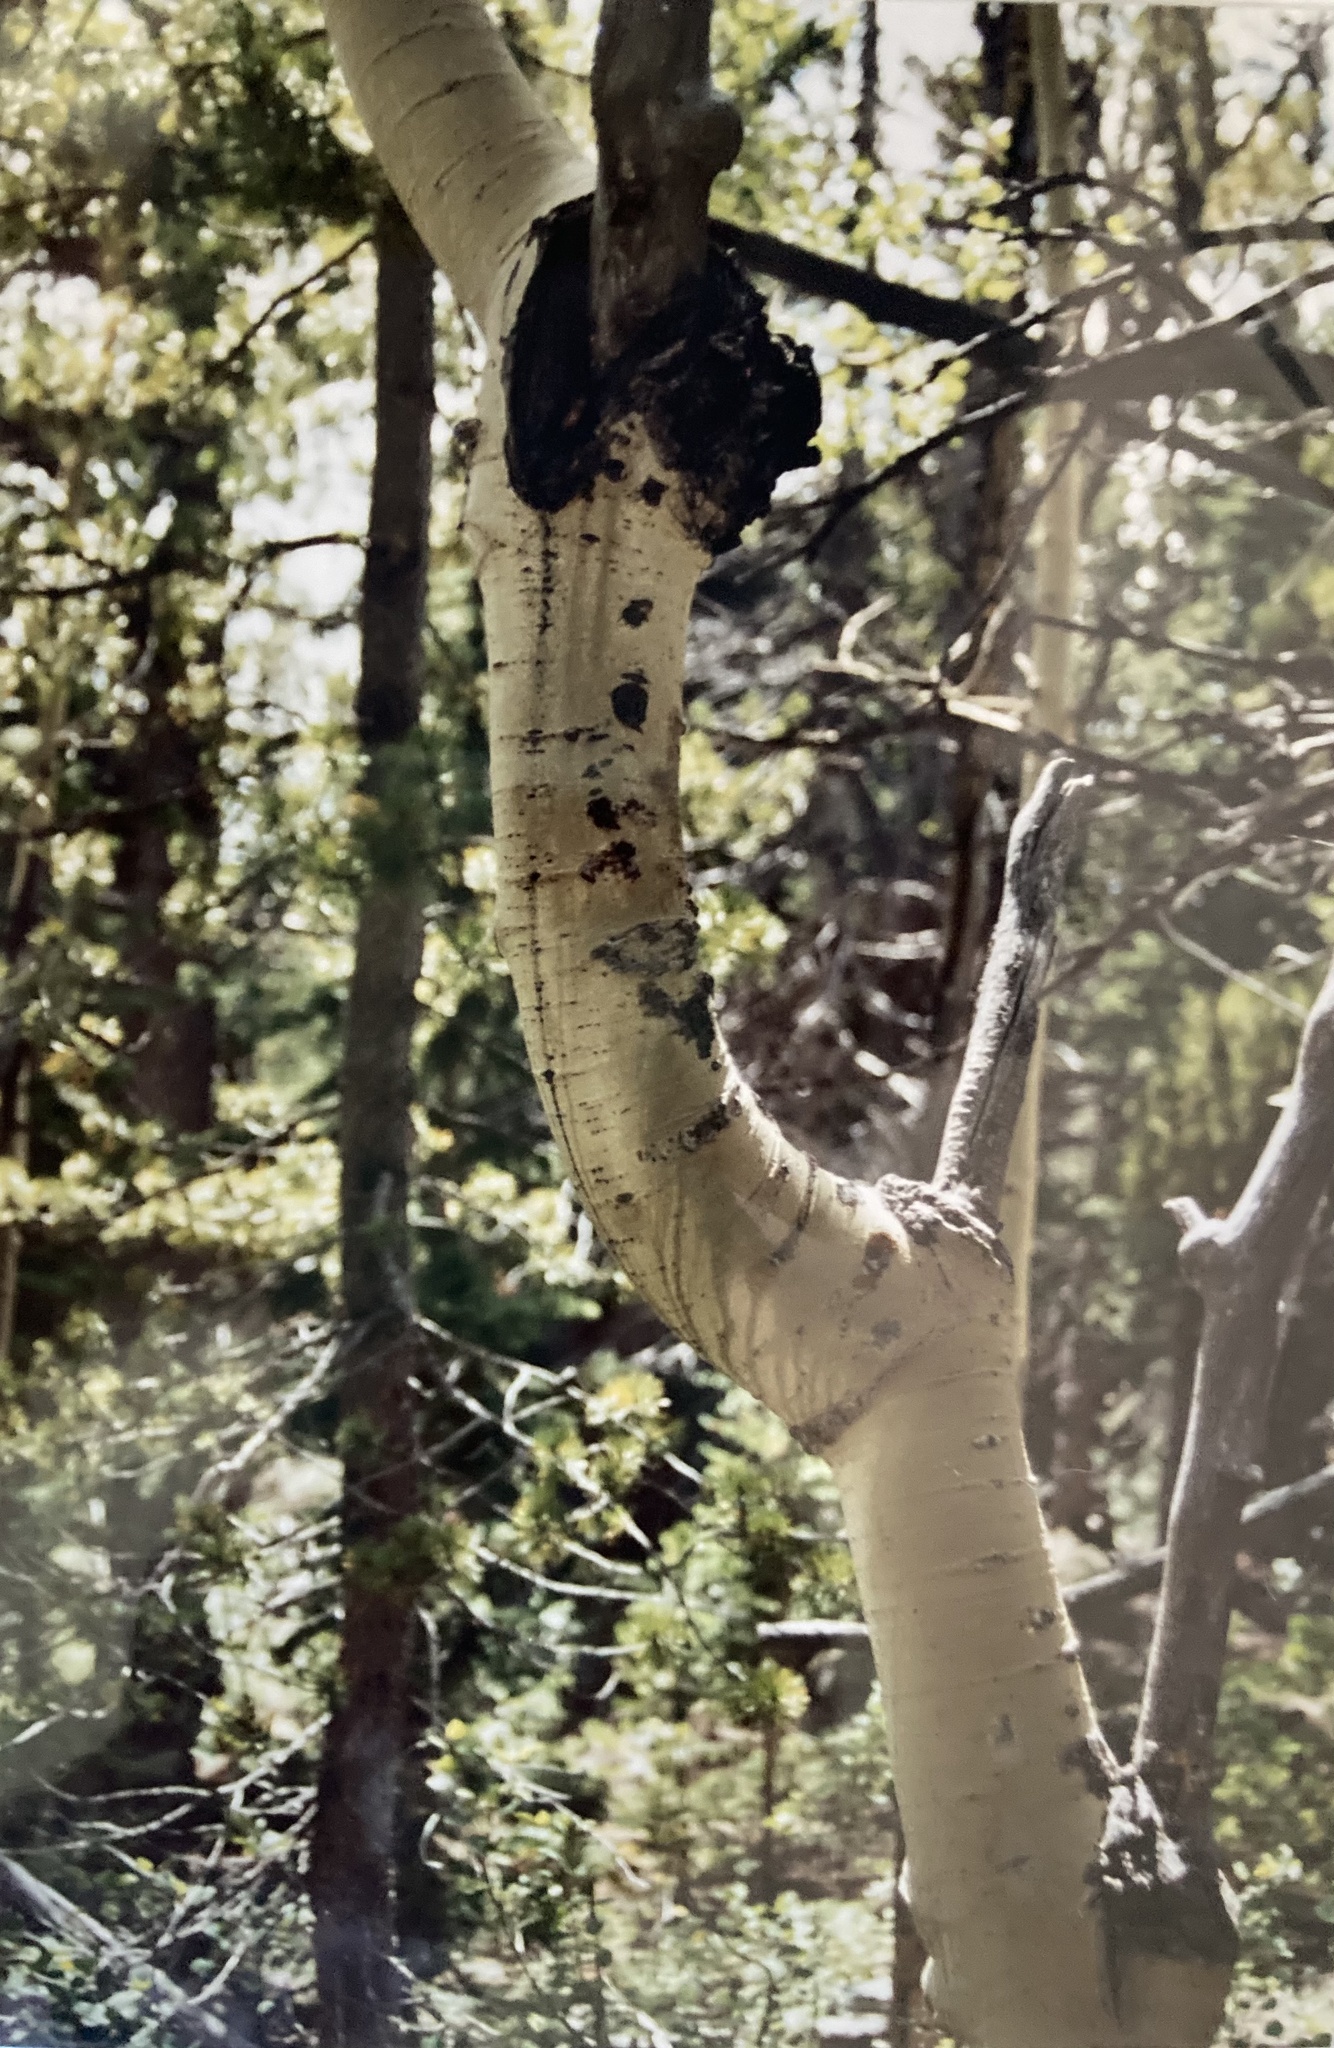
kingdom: Plantae
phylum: Tracheophyta
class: Magnoliopsida
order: Malpighiales
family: Salicaceae
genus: Populus
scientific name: Populus tremuloides
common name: Quaking aspen
